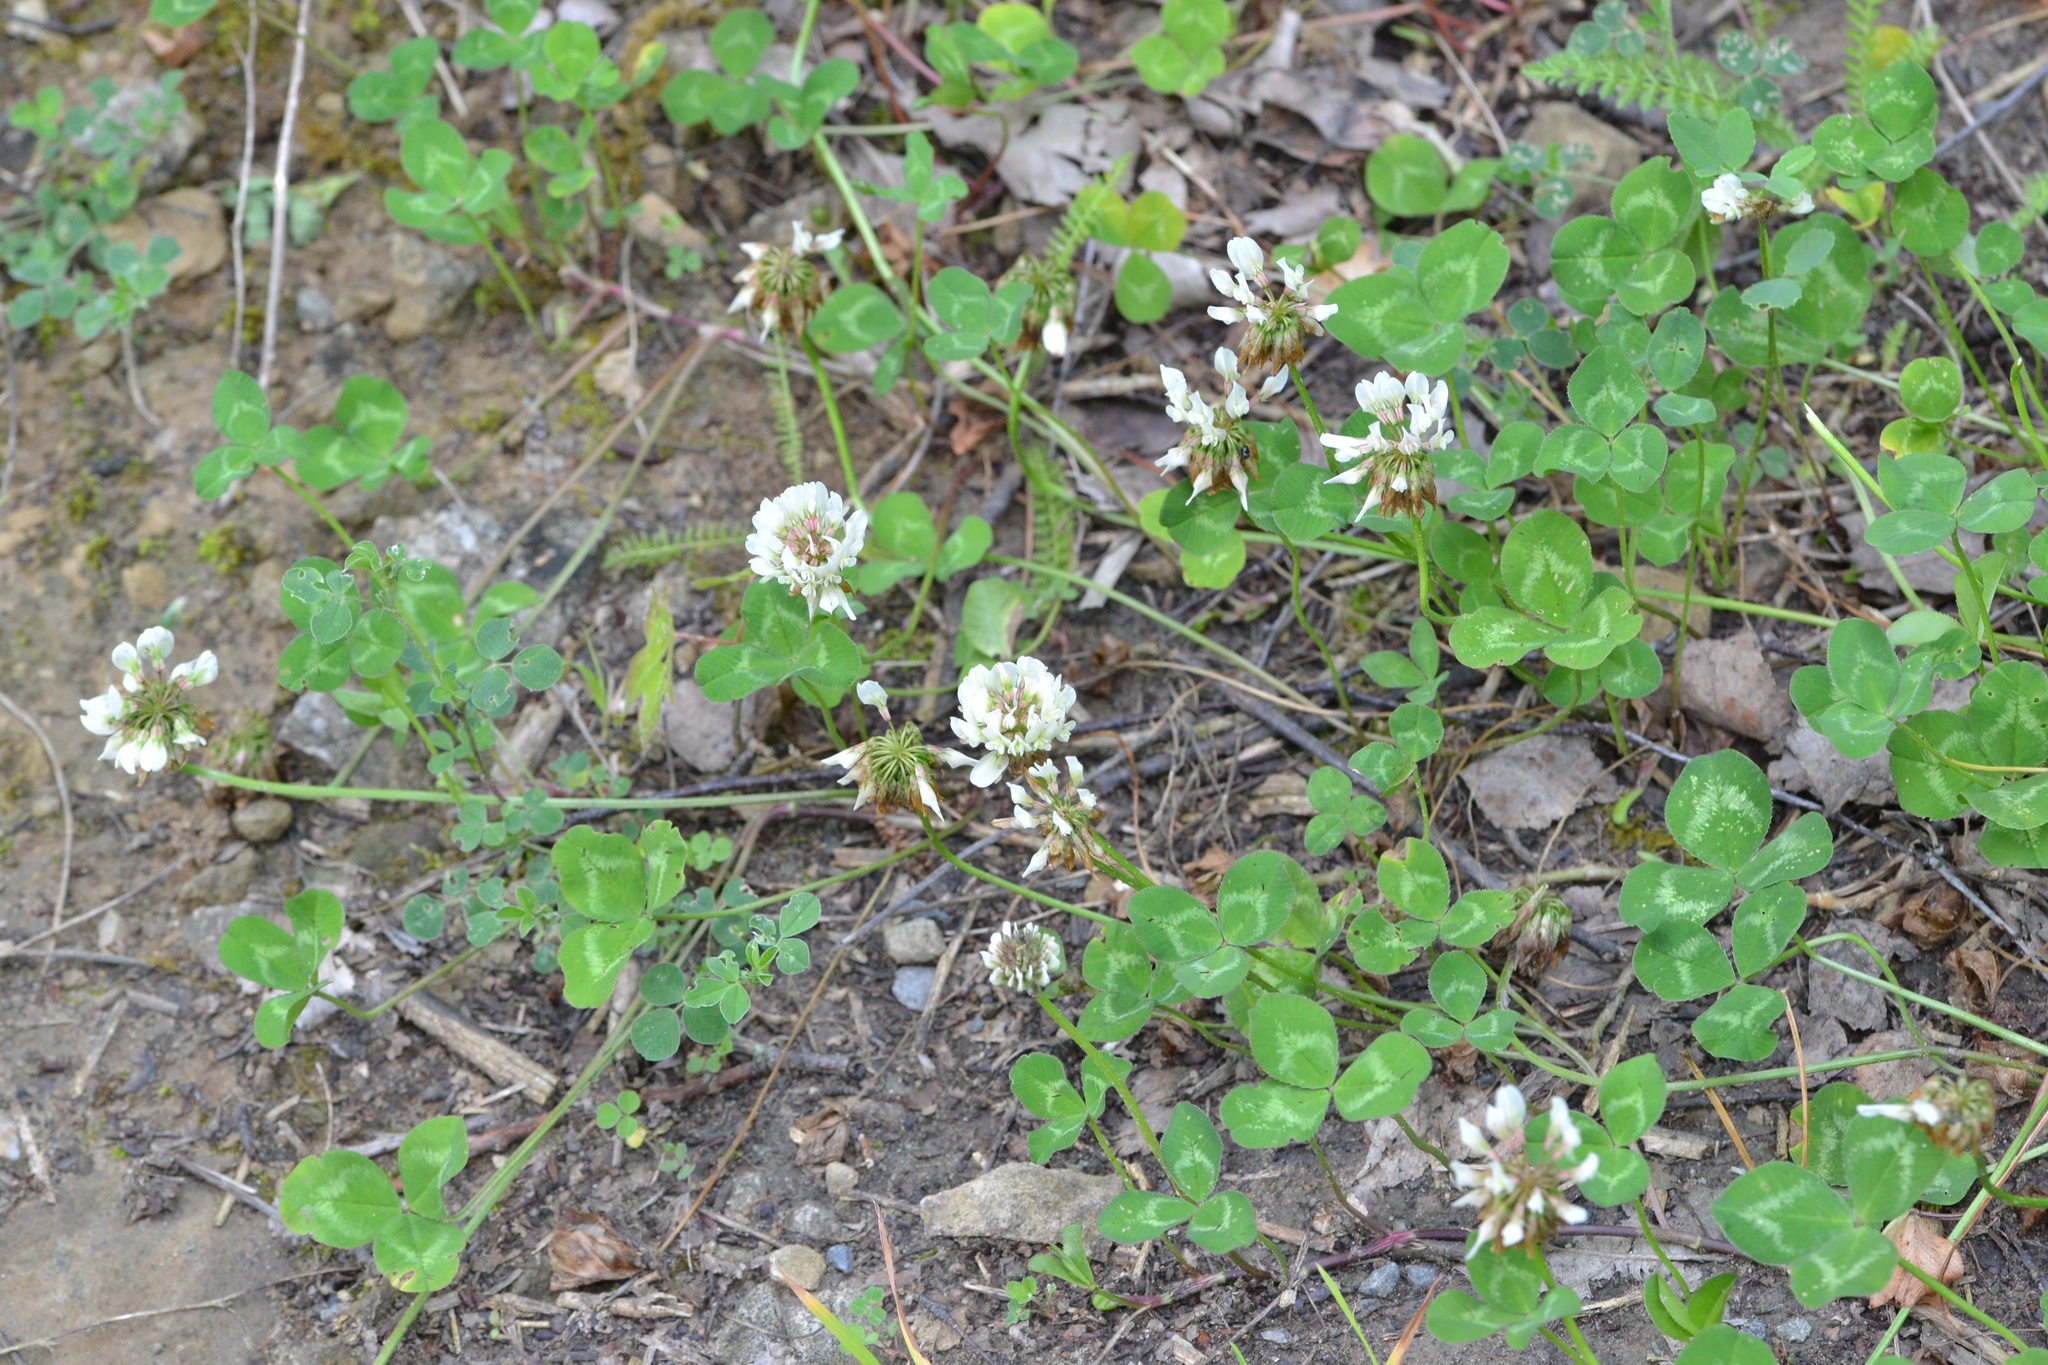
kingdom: Plantae
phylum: Tracheophyta
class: Magnoliopsida
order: Fabales
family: Fabaceae
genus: Trifolium
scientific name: Trifolium repens
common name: White clover
